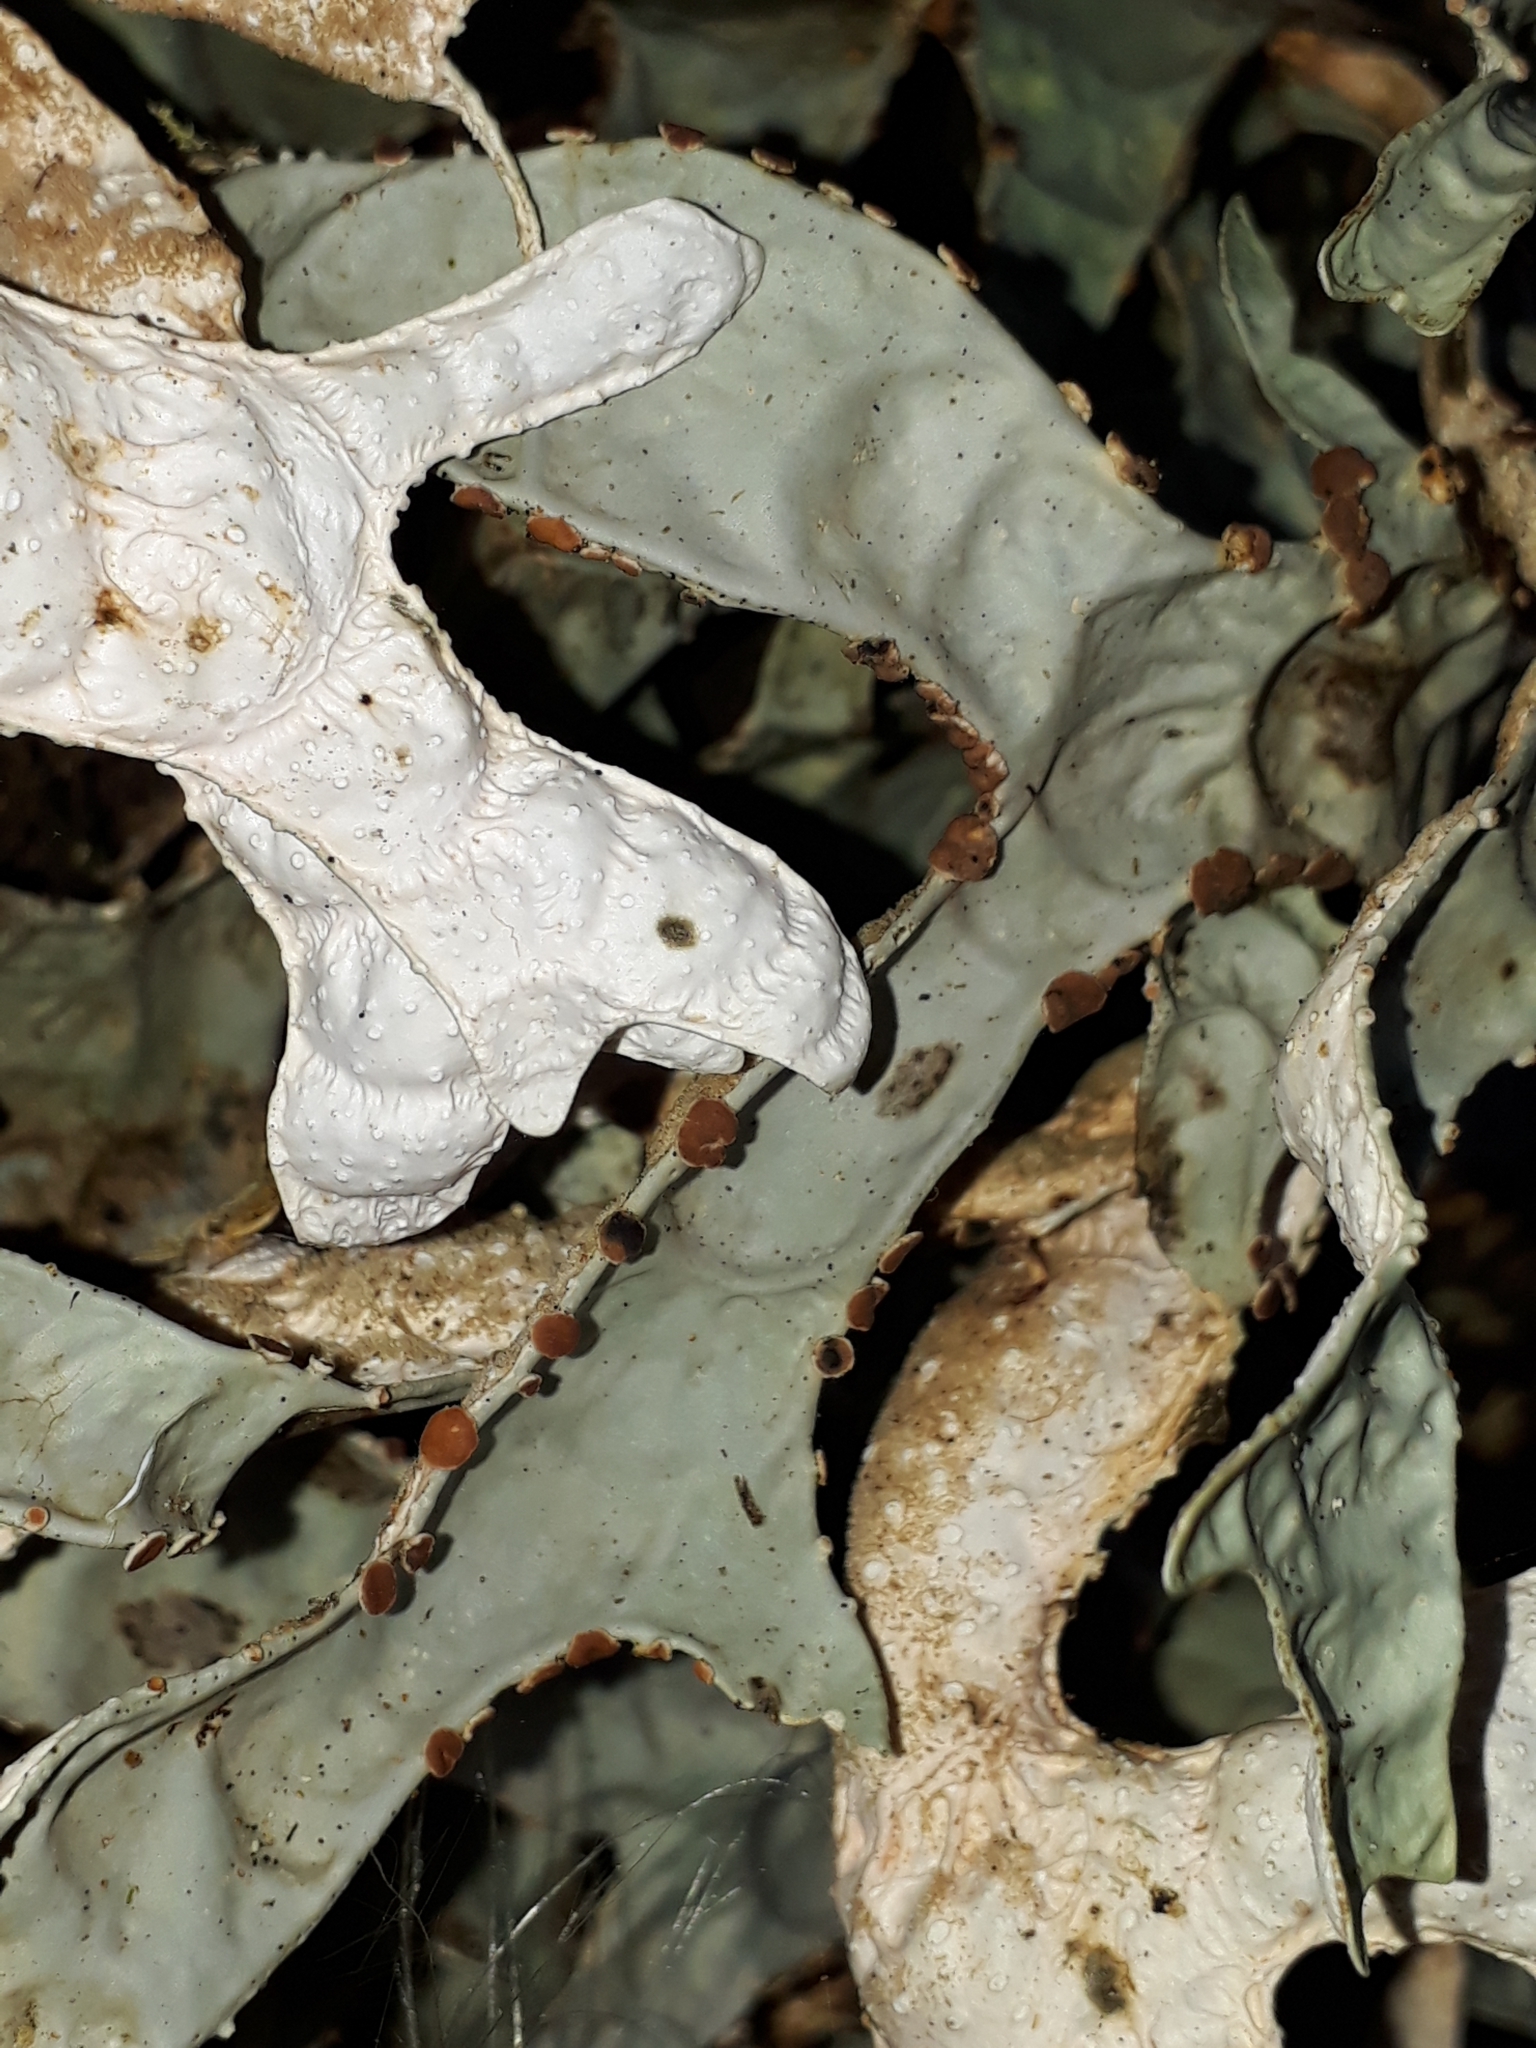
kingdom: Fungi
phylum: Ascomycota
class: Lecanoromycetes
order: Peltigerales
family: Lobariaceae
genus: Pseudocyphellaria
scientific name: Pseudocyphellaria rufovirescens
